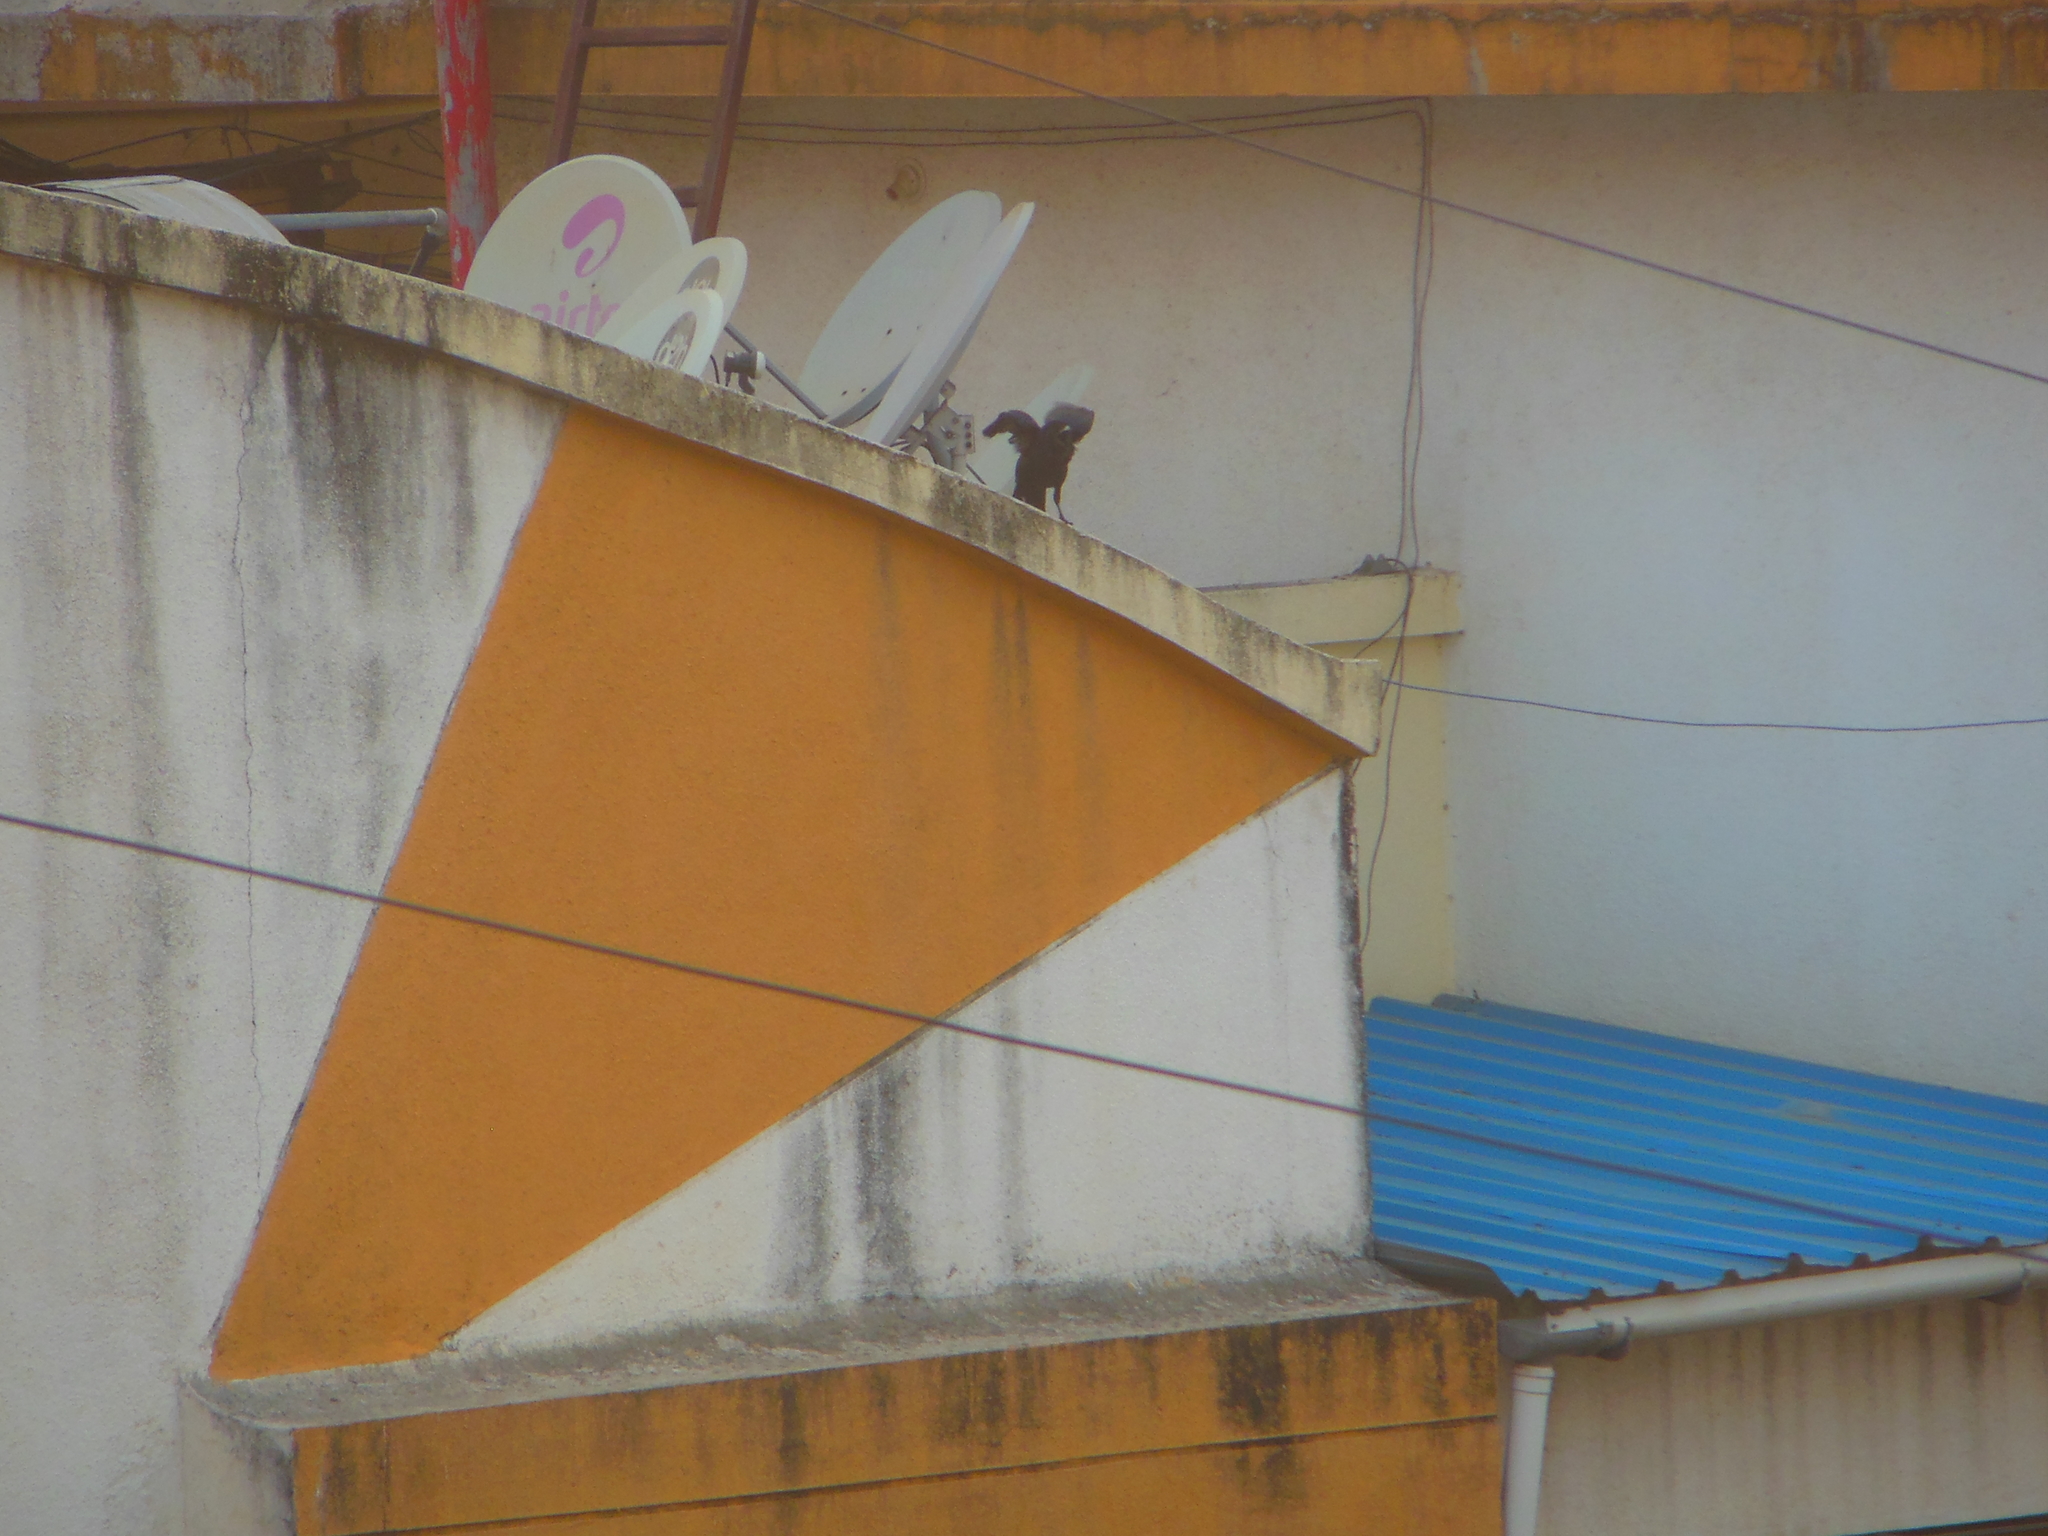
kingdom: Animalia
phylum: Chordata
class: Aves
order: Passeriformes
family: Corvidae
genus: Corvus
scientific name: Corvus macrorhynchos
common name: Large-billed crow
